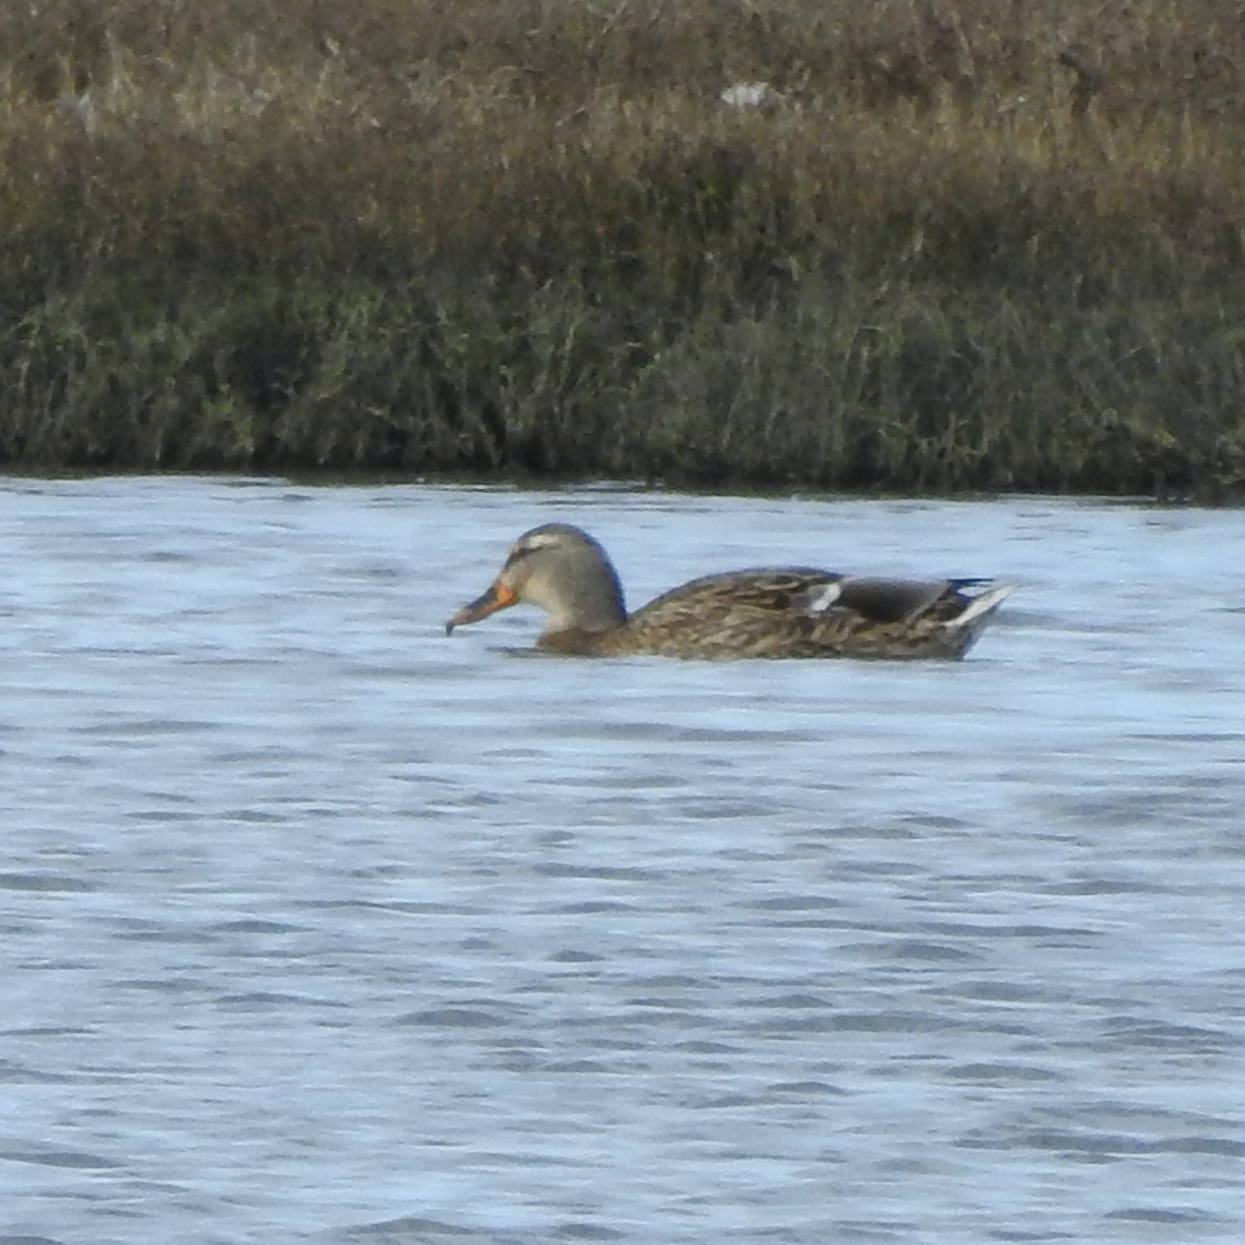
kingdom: Animalia
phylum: Chordata
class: Aves
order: Anseriformes
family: Anatidae
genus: Anas
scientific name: Anas platyrhynchos
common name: Mallard
